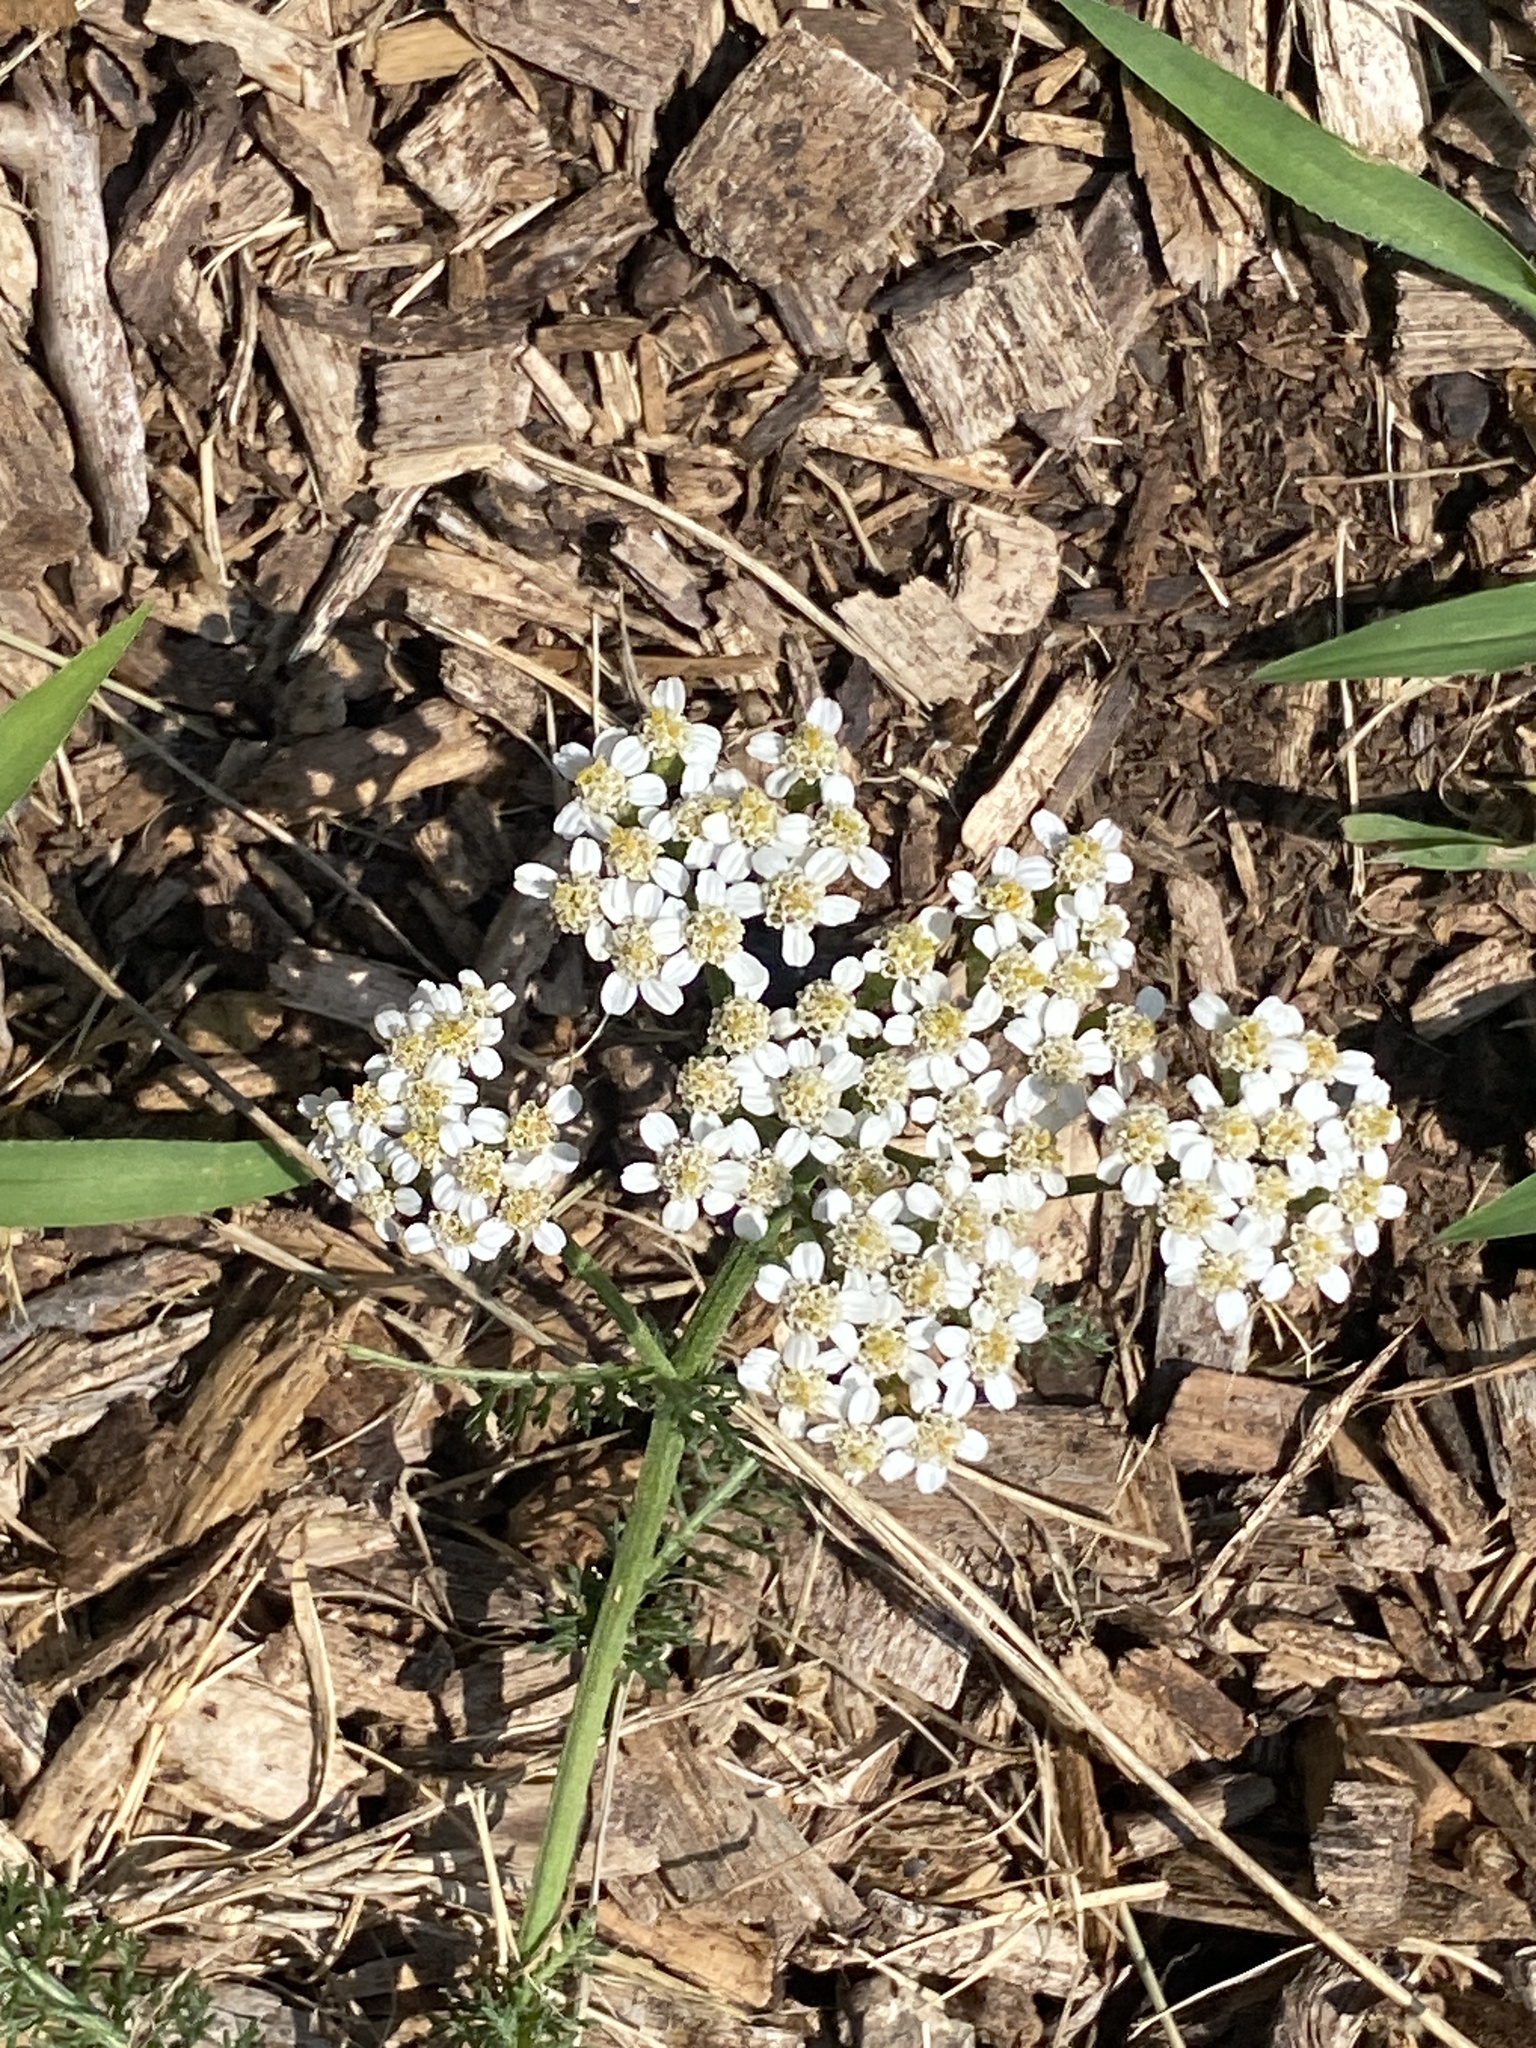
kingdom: Plantae
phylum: Tracheophyta
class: Magnoliopsida
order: Asterales
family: Asteraceae
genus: Achillea
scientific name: Achillea millefolium
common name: Yarrow
